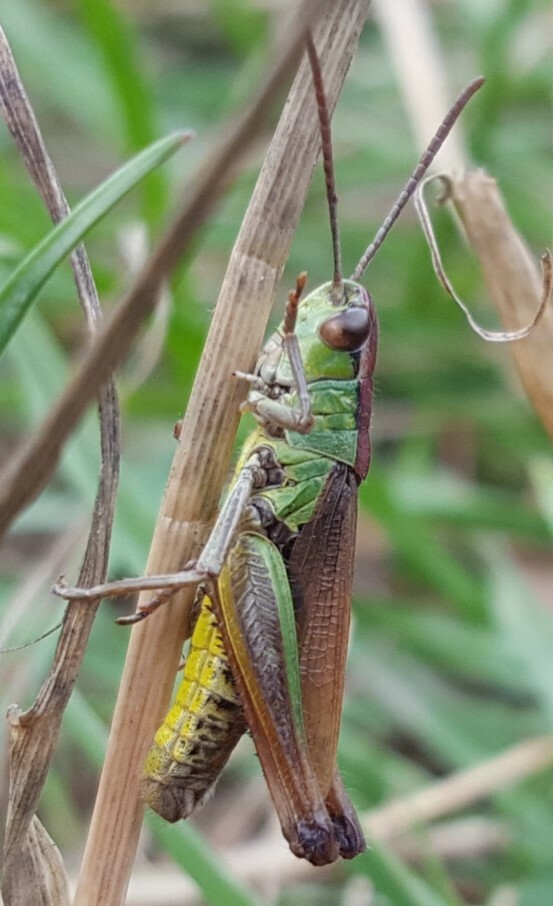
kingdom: Animalia
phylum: Arthropoda
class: Insecta
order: Orthoptera
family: Acrididae
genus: Pseudochorthippus
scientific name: Pseudochorthippus parallelus
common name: Meadow grasshopper
